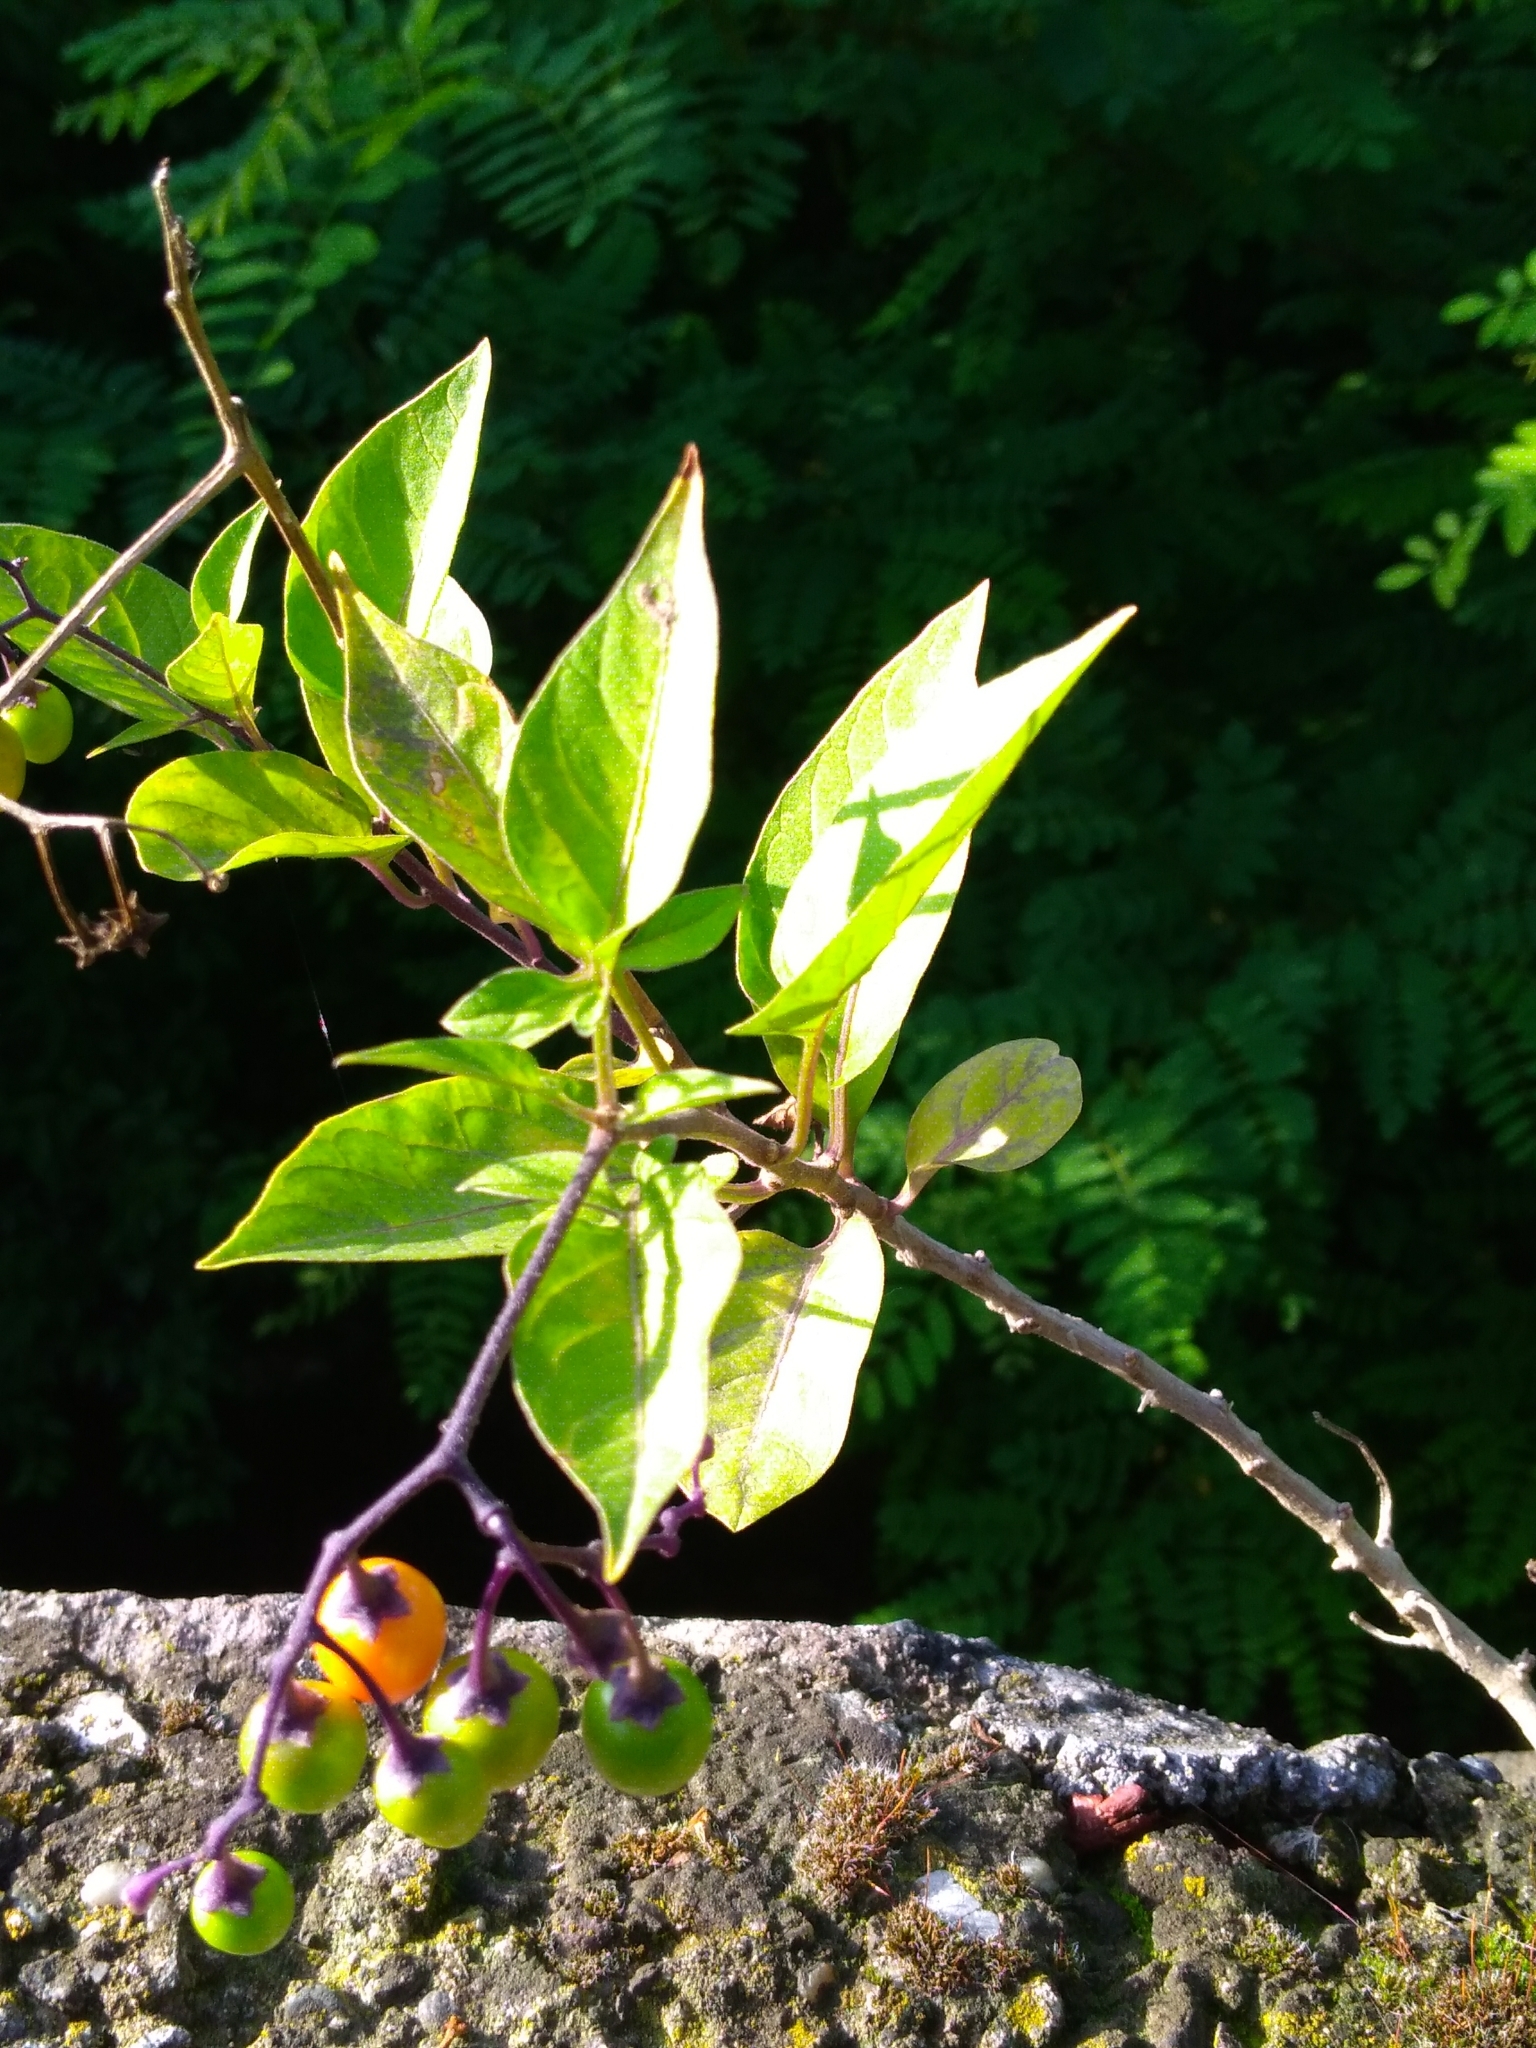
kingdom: Plantae
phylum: Tracheophyta
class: Magnoliopsida
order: Solanales
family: Solanaceae
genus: Solanum
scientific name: Solanum dulcamara
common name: Climbing nightshade
